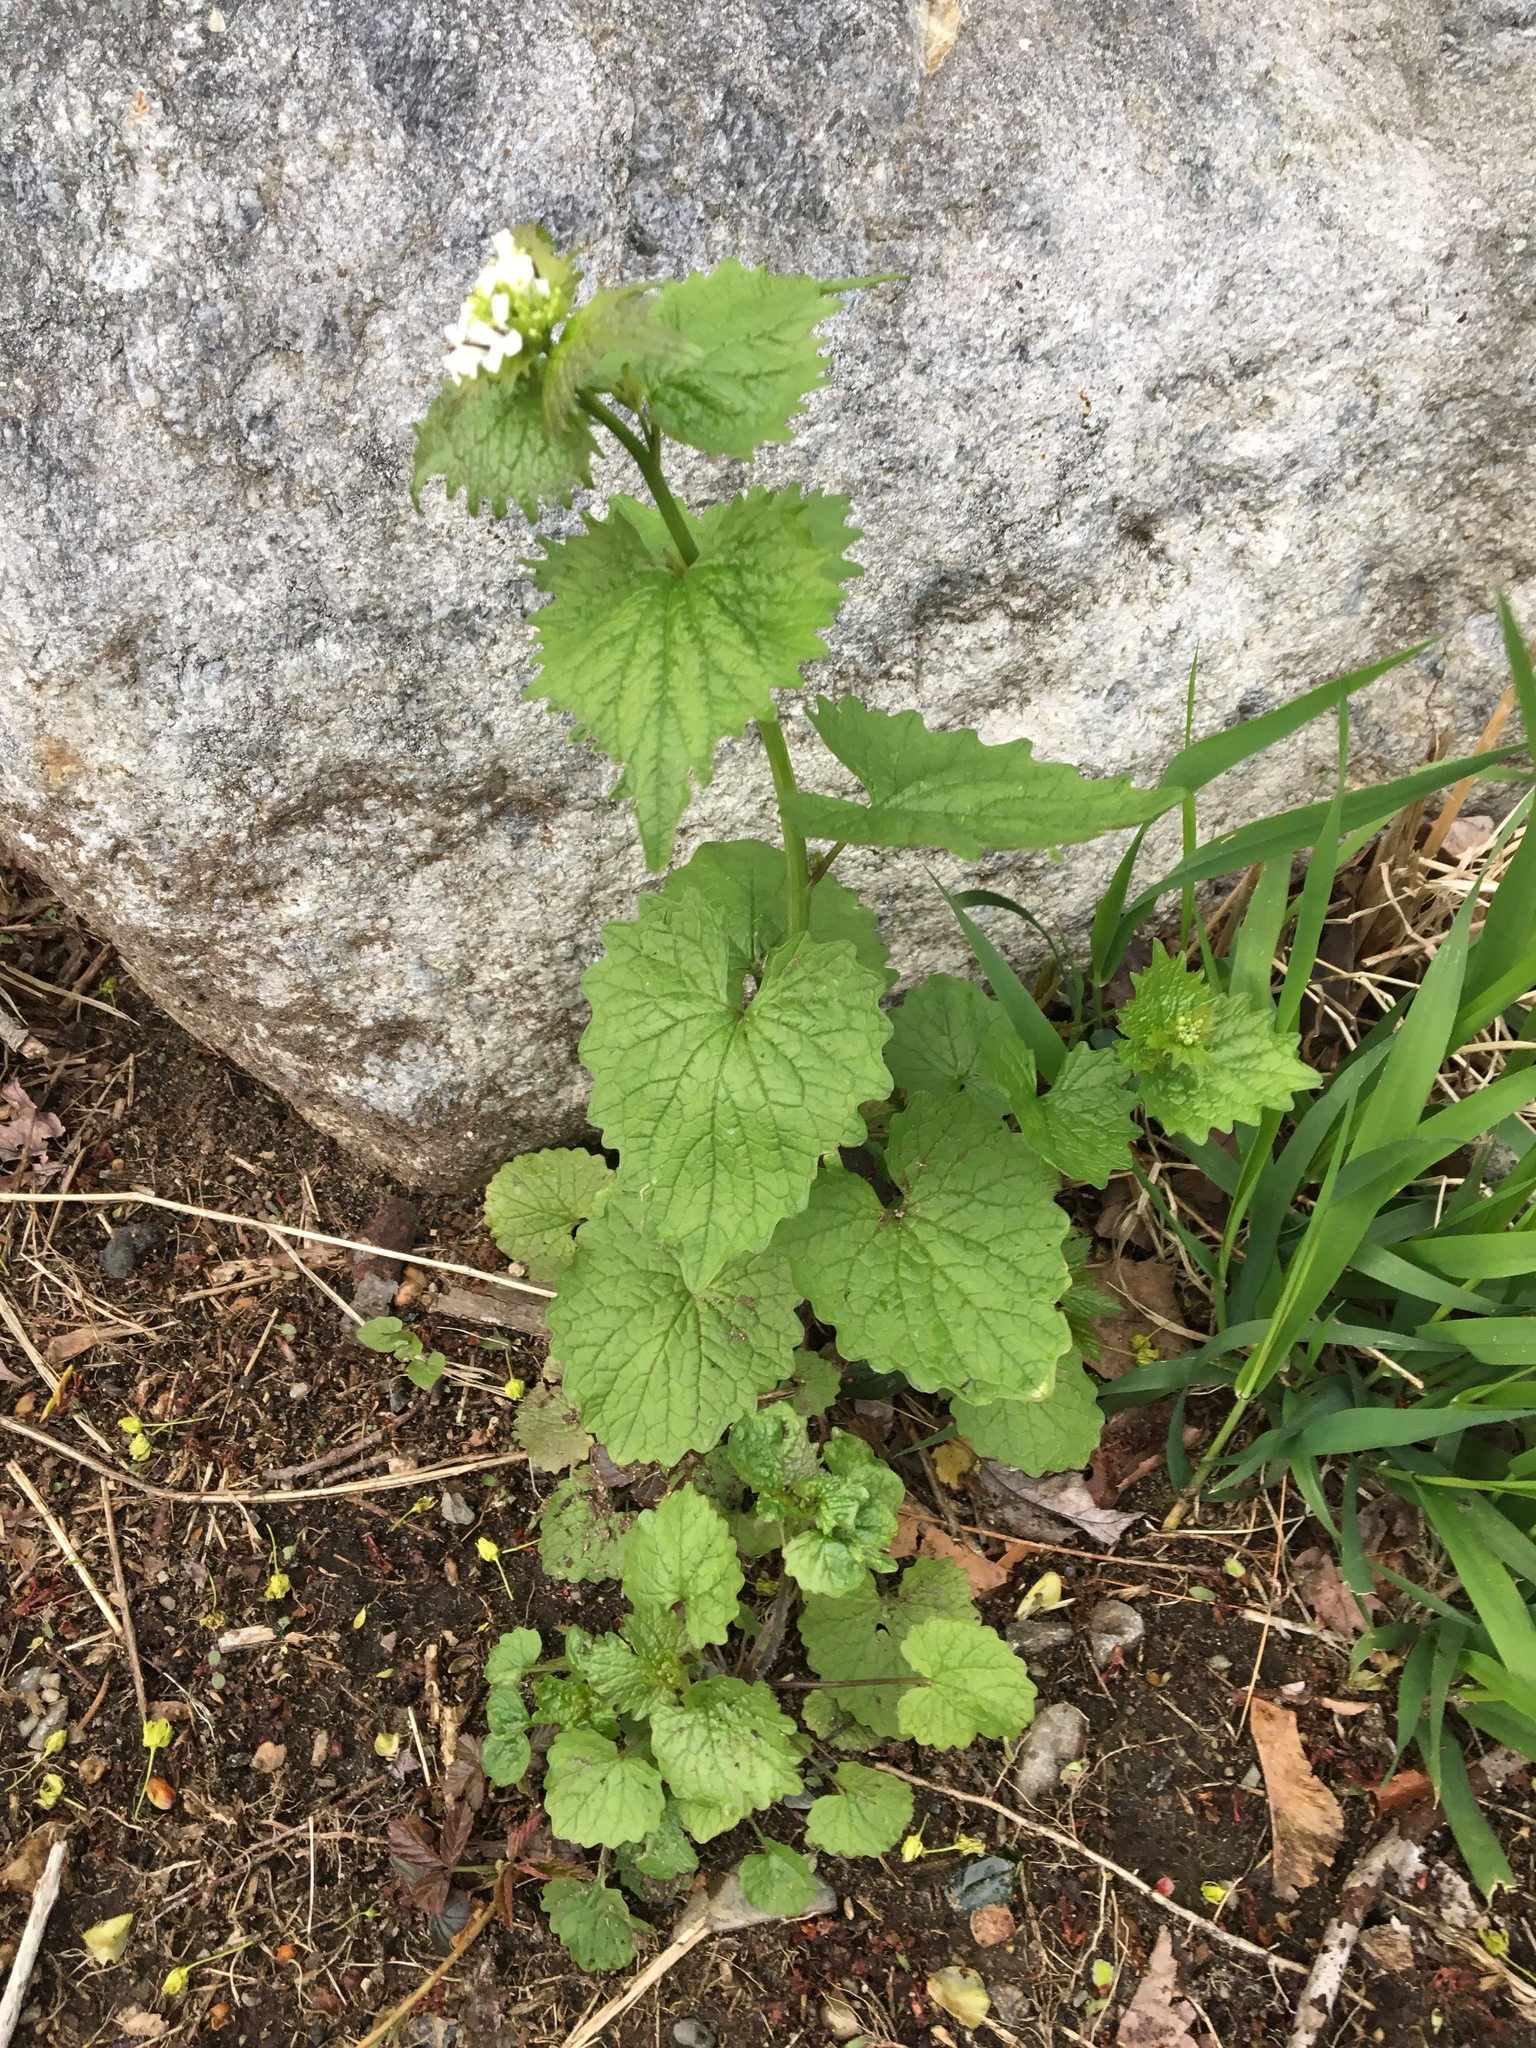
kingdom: Plantae
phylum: Tracheophyta
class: Magnoliopsida
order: Brassicales
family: Brassicaceae
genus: Alliaria
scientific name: Alliaria petiolata
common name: Garlic mustard
